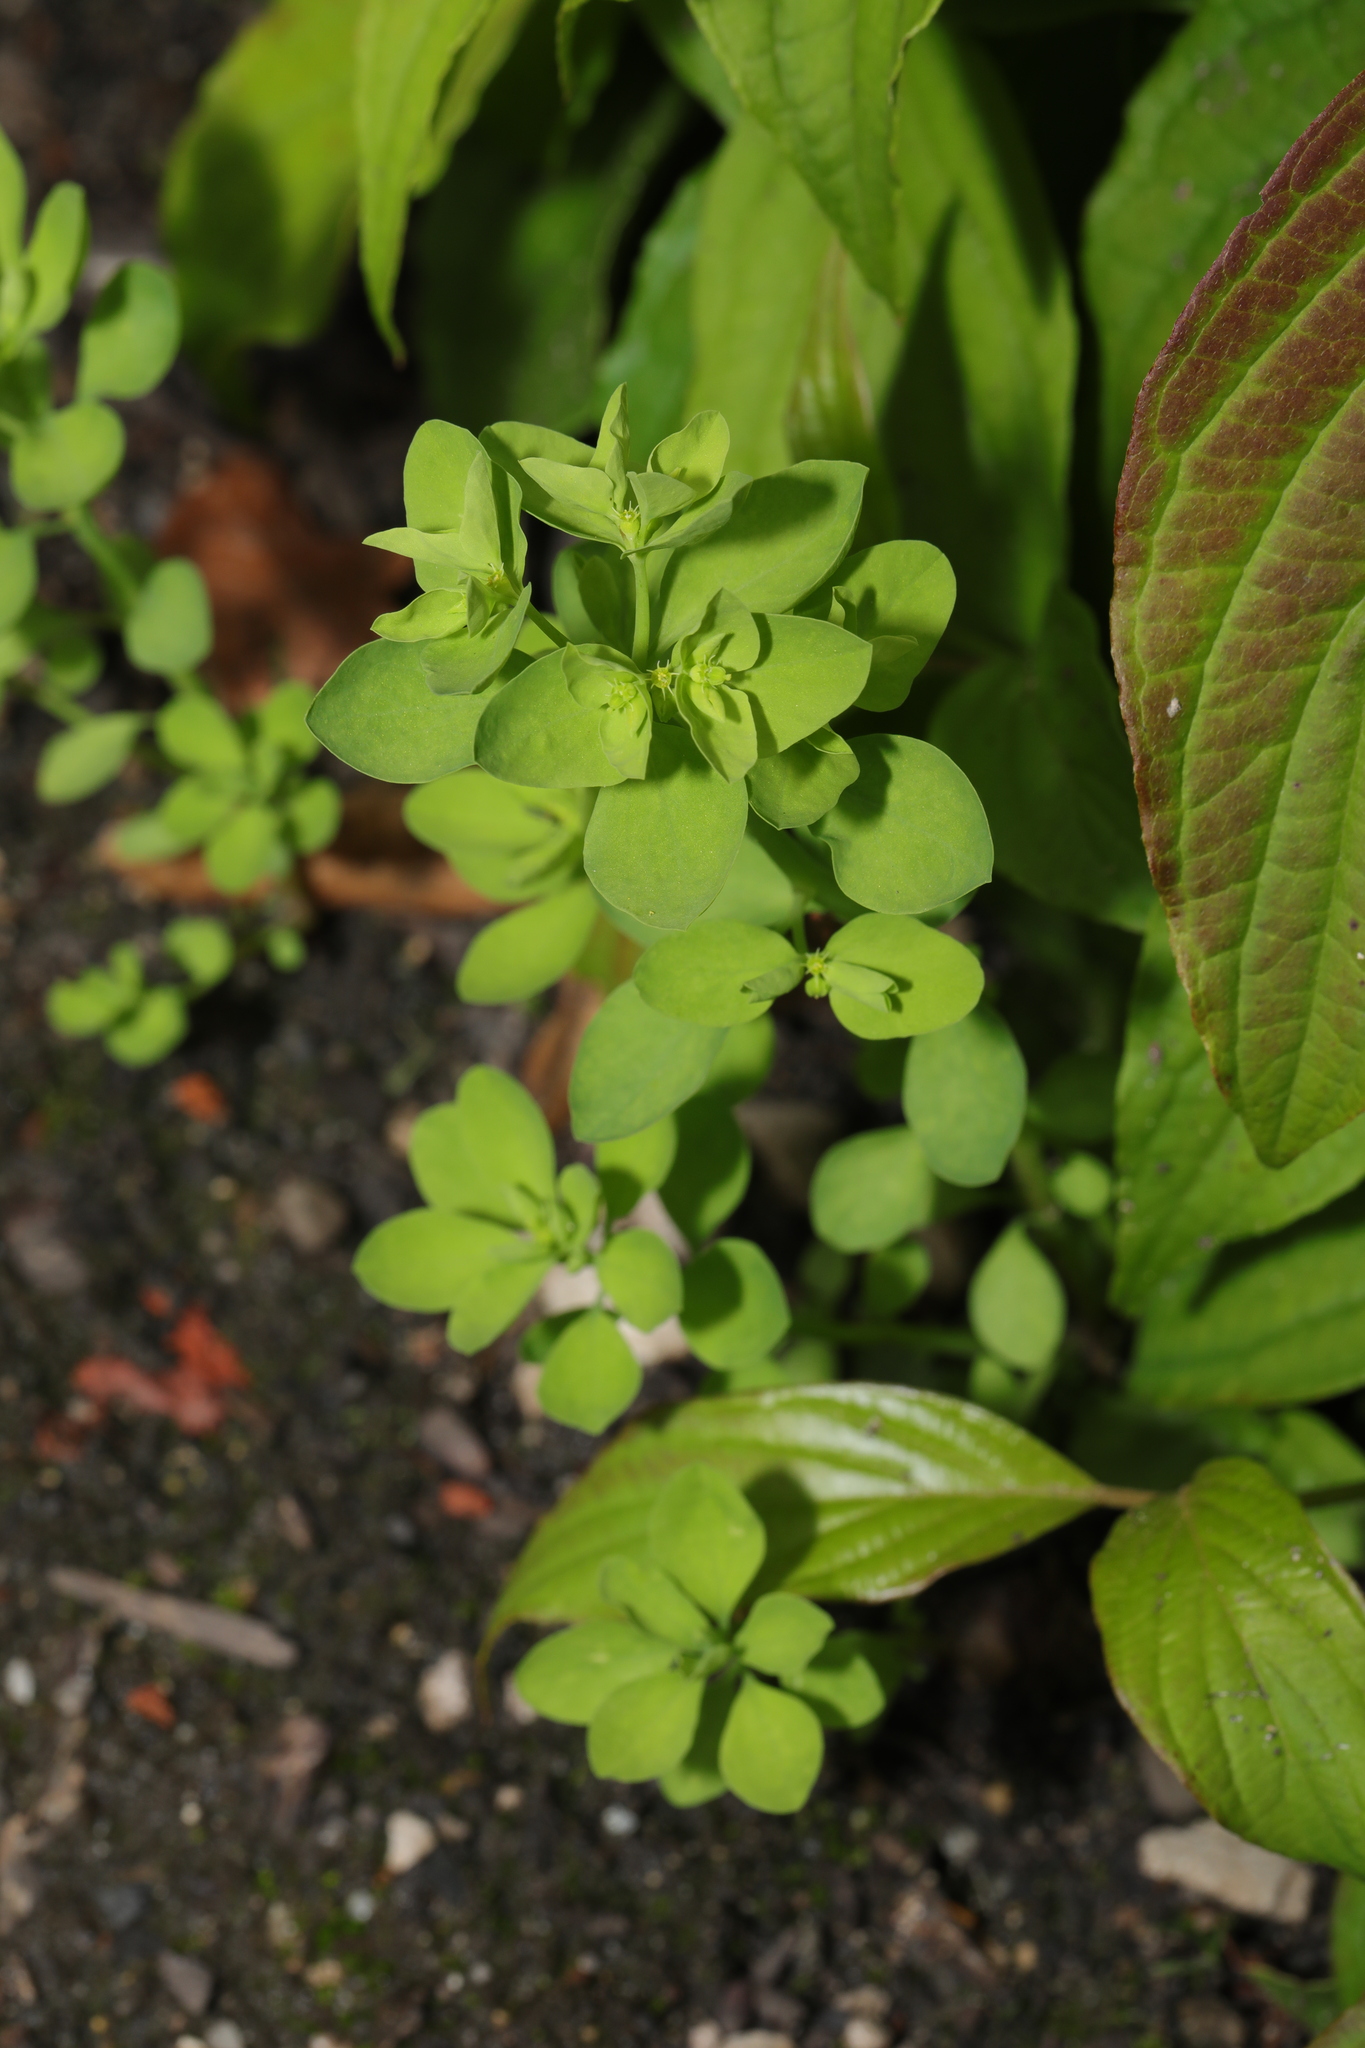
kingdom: Plantae
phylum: Tracheophyta
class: Magnoliopsida
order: Malpighiales
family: Euphorbiaceae
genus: Euphorbia
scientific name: Euphorbia peplus
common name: Petty spurge
